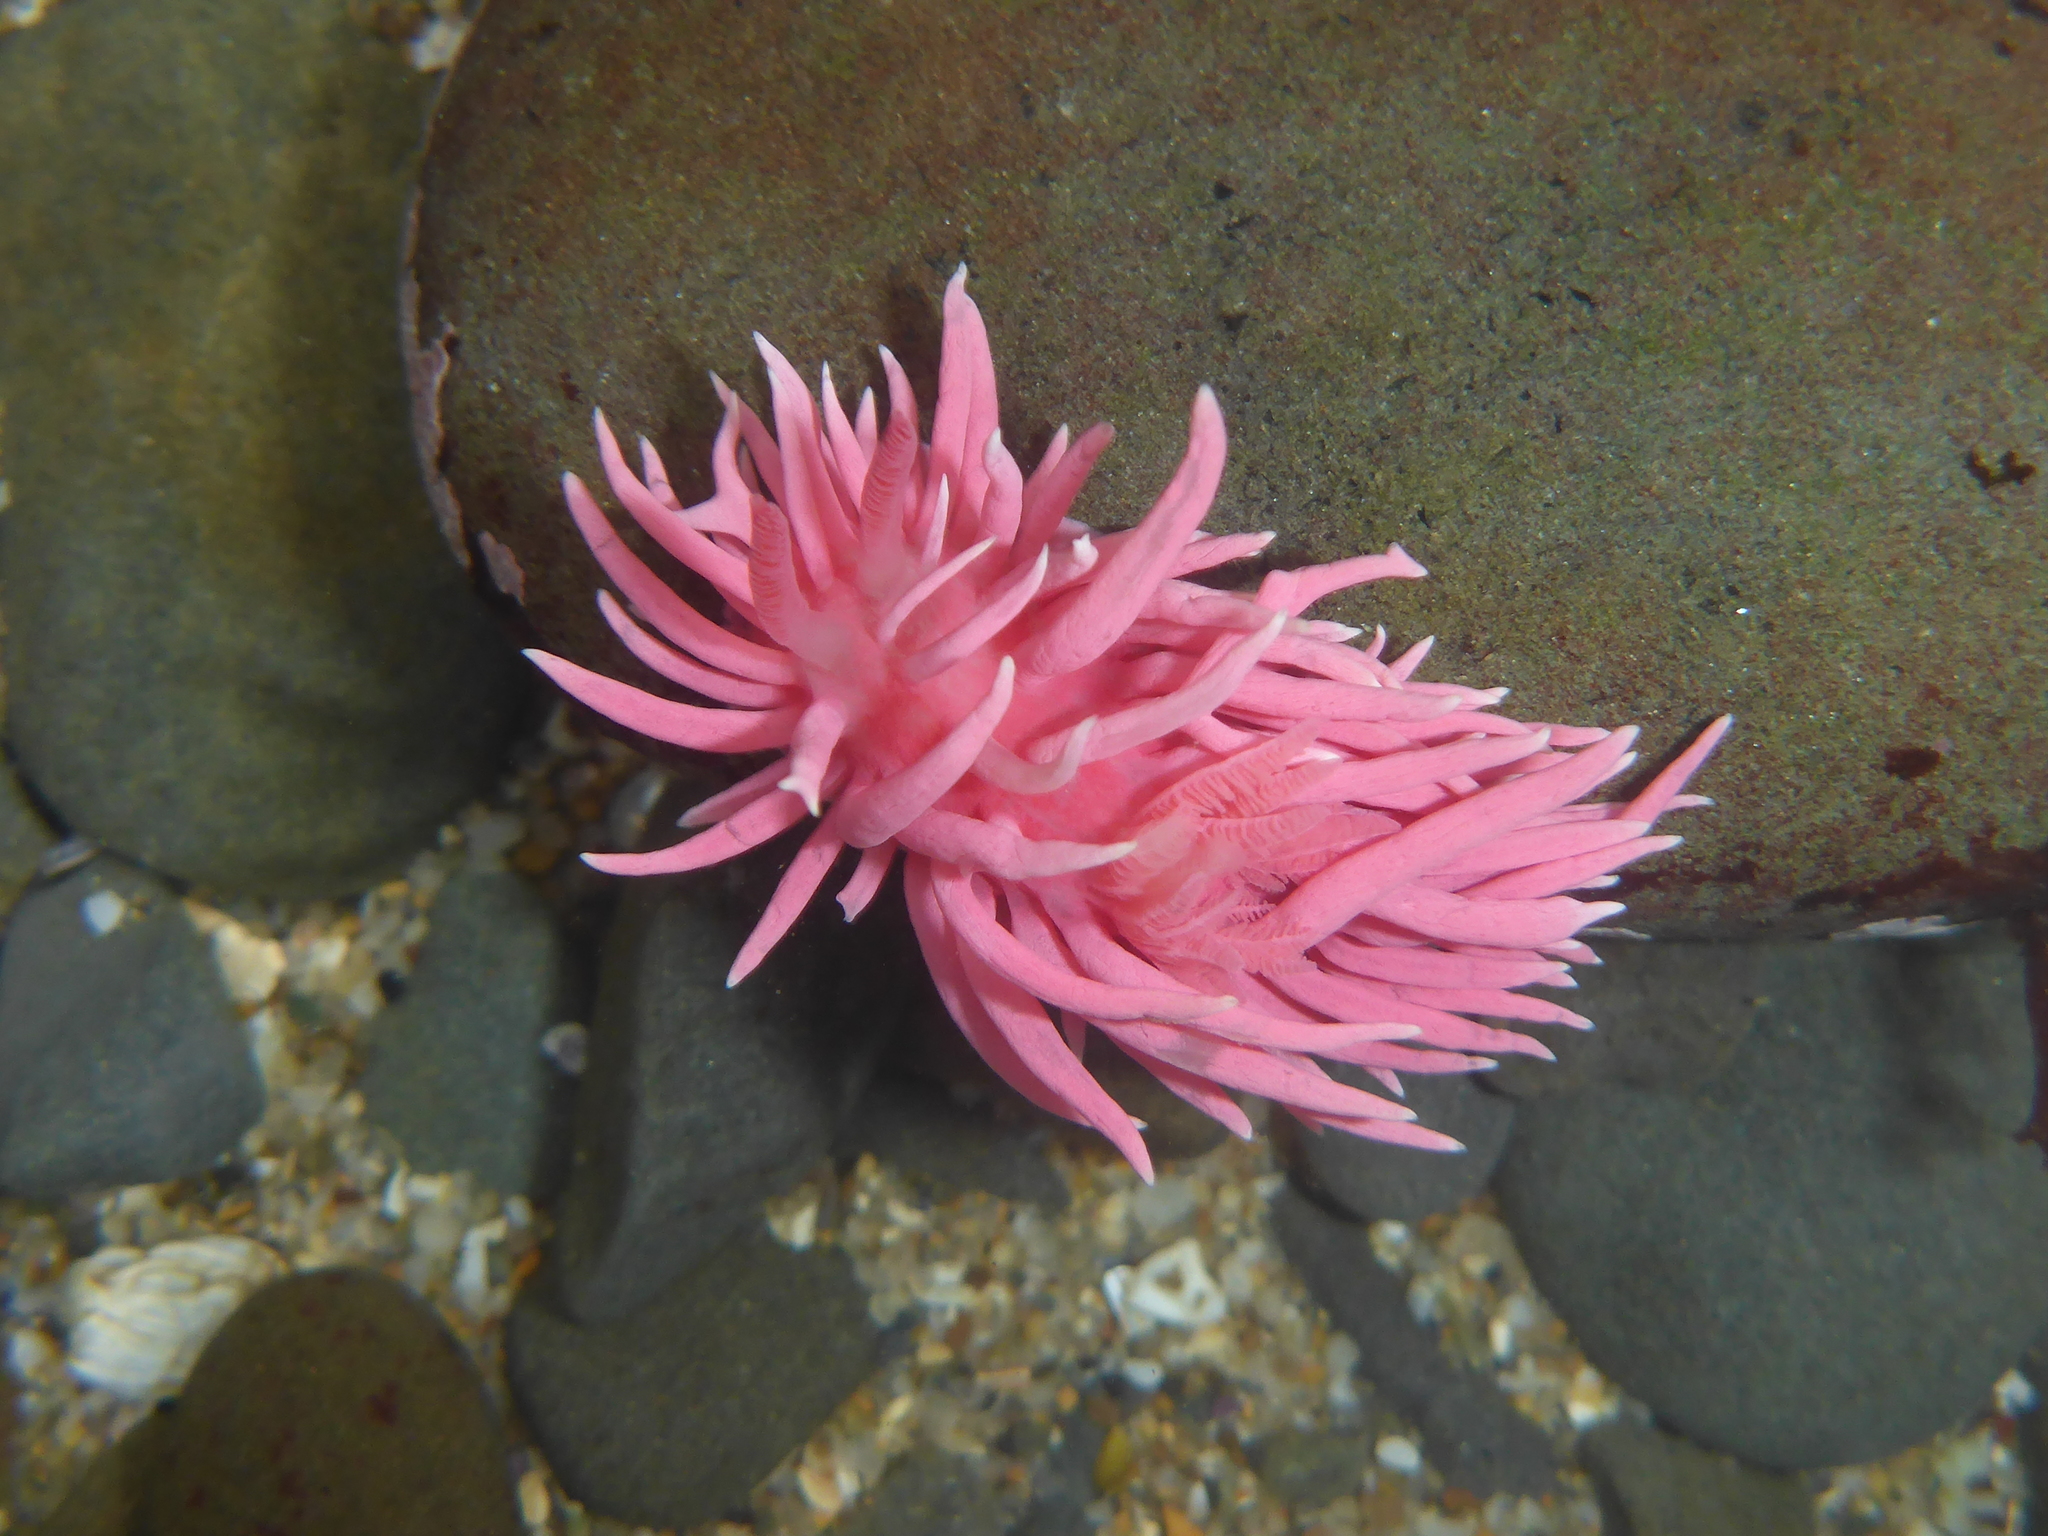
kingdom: Animalia
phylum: Mollusca
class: Gastropoda
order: Nudibranchia
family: Goniodorididae
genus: Okenia
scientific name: Okenia
